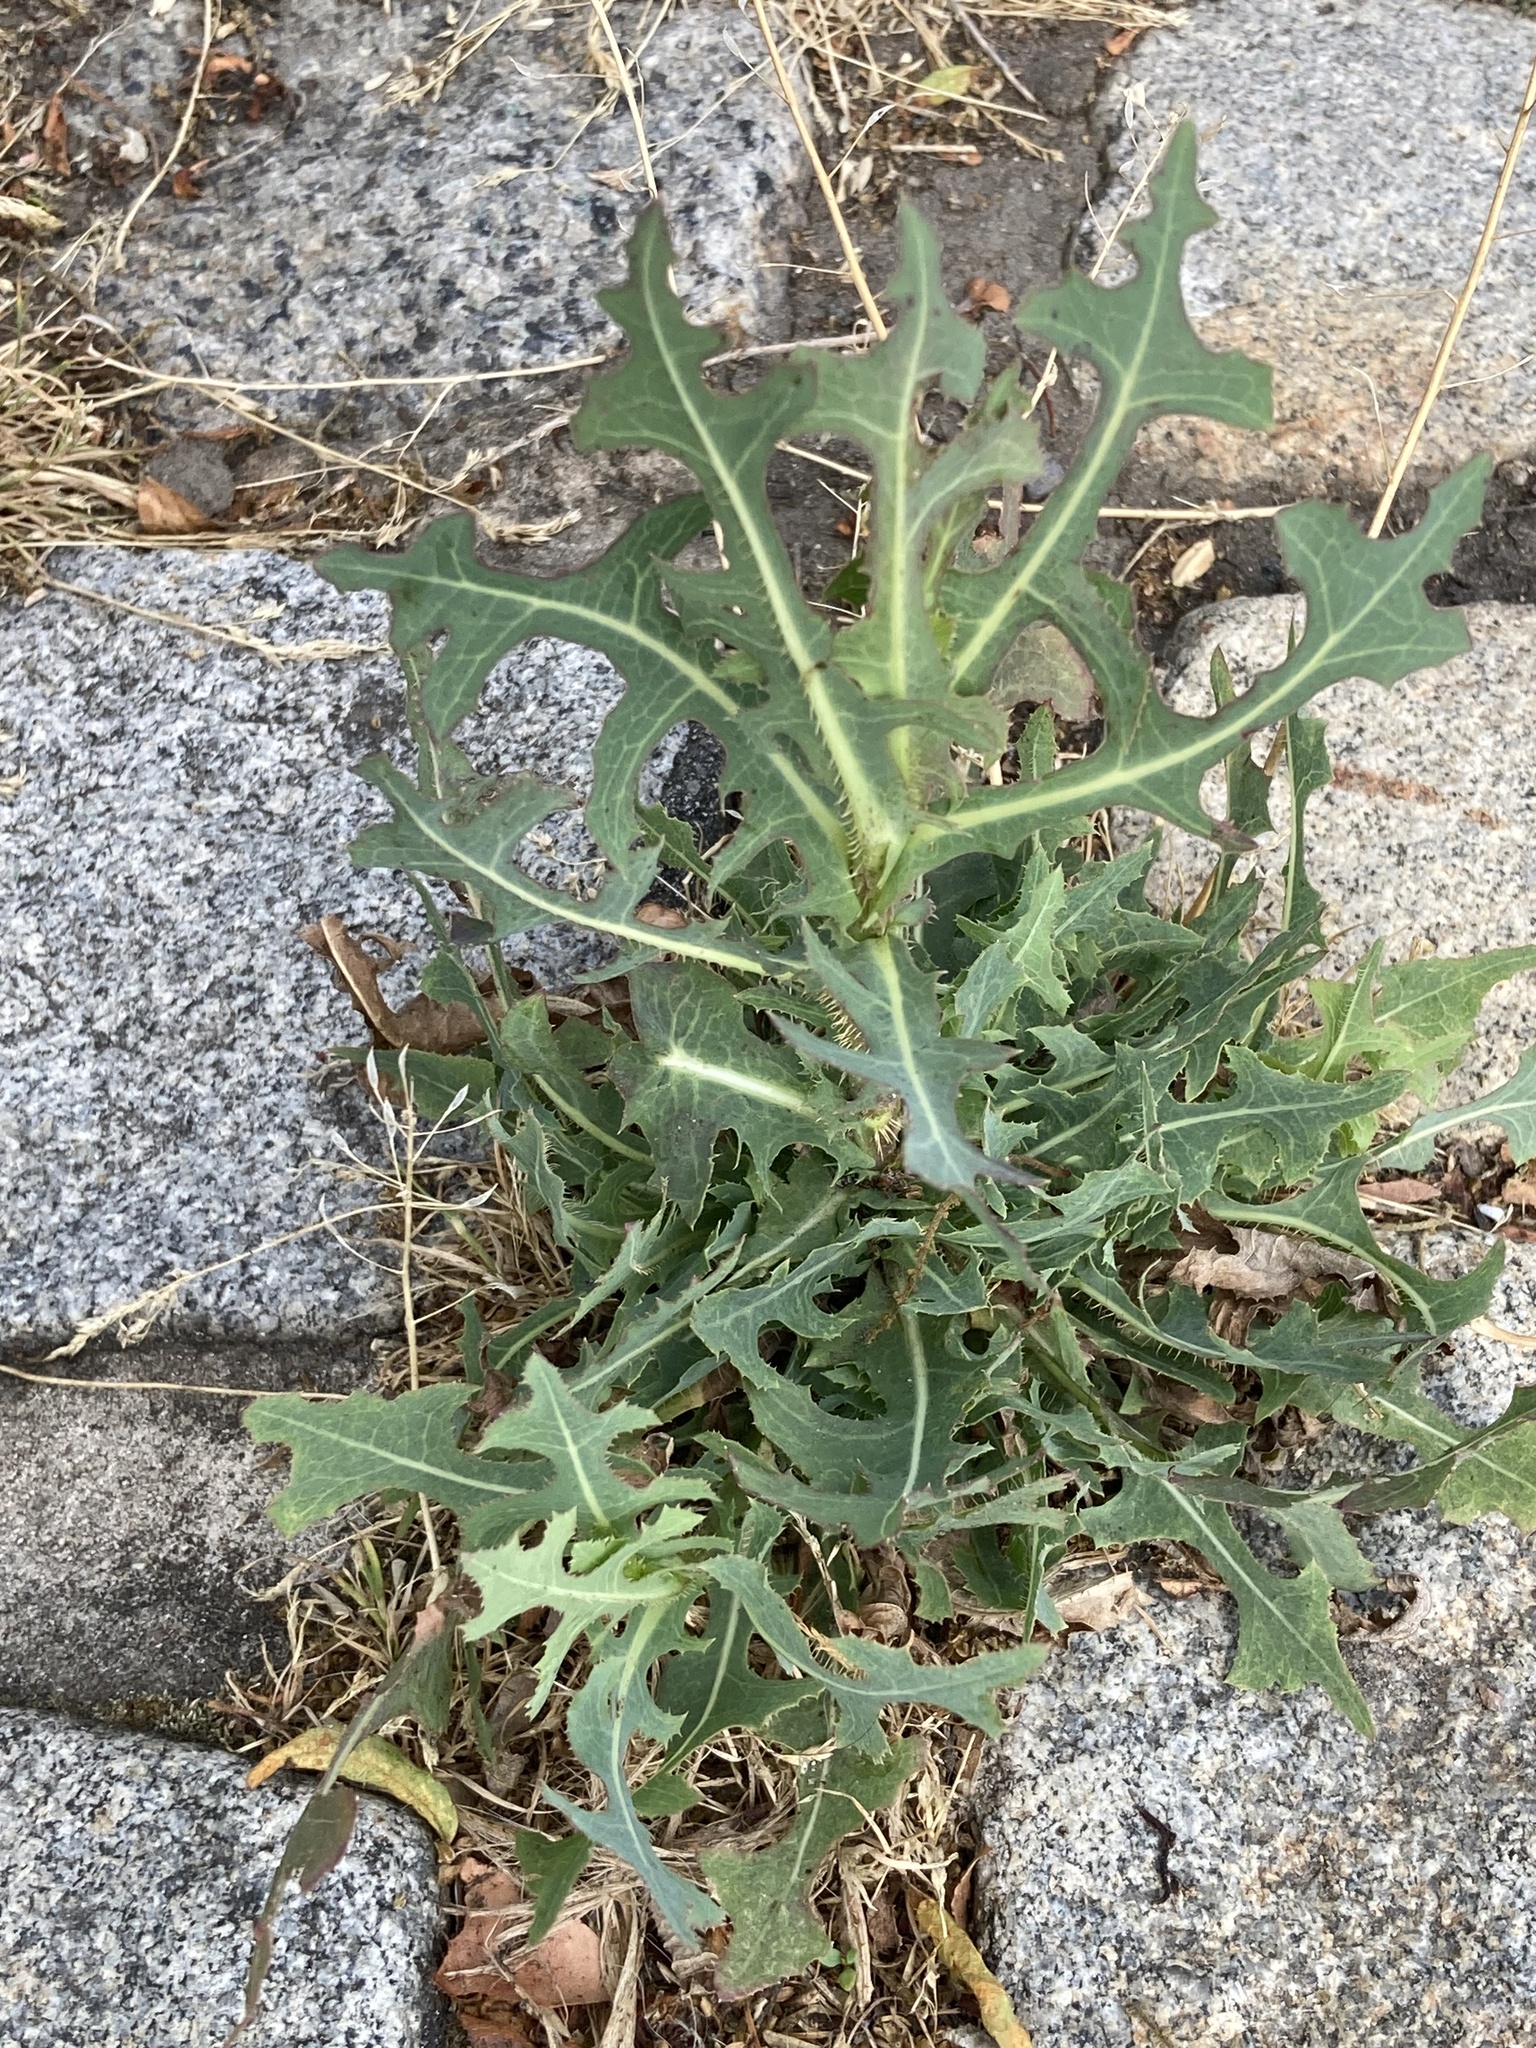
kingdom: Plantae
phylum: Tracheophyta
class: Magnoliopsida
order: Asterales
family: Asteraceae
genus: Lactuca
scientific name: Lactuca serriola
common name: Prickly lettuce
